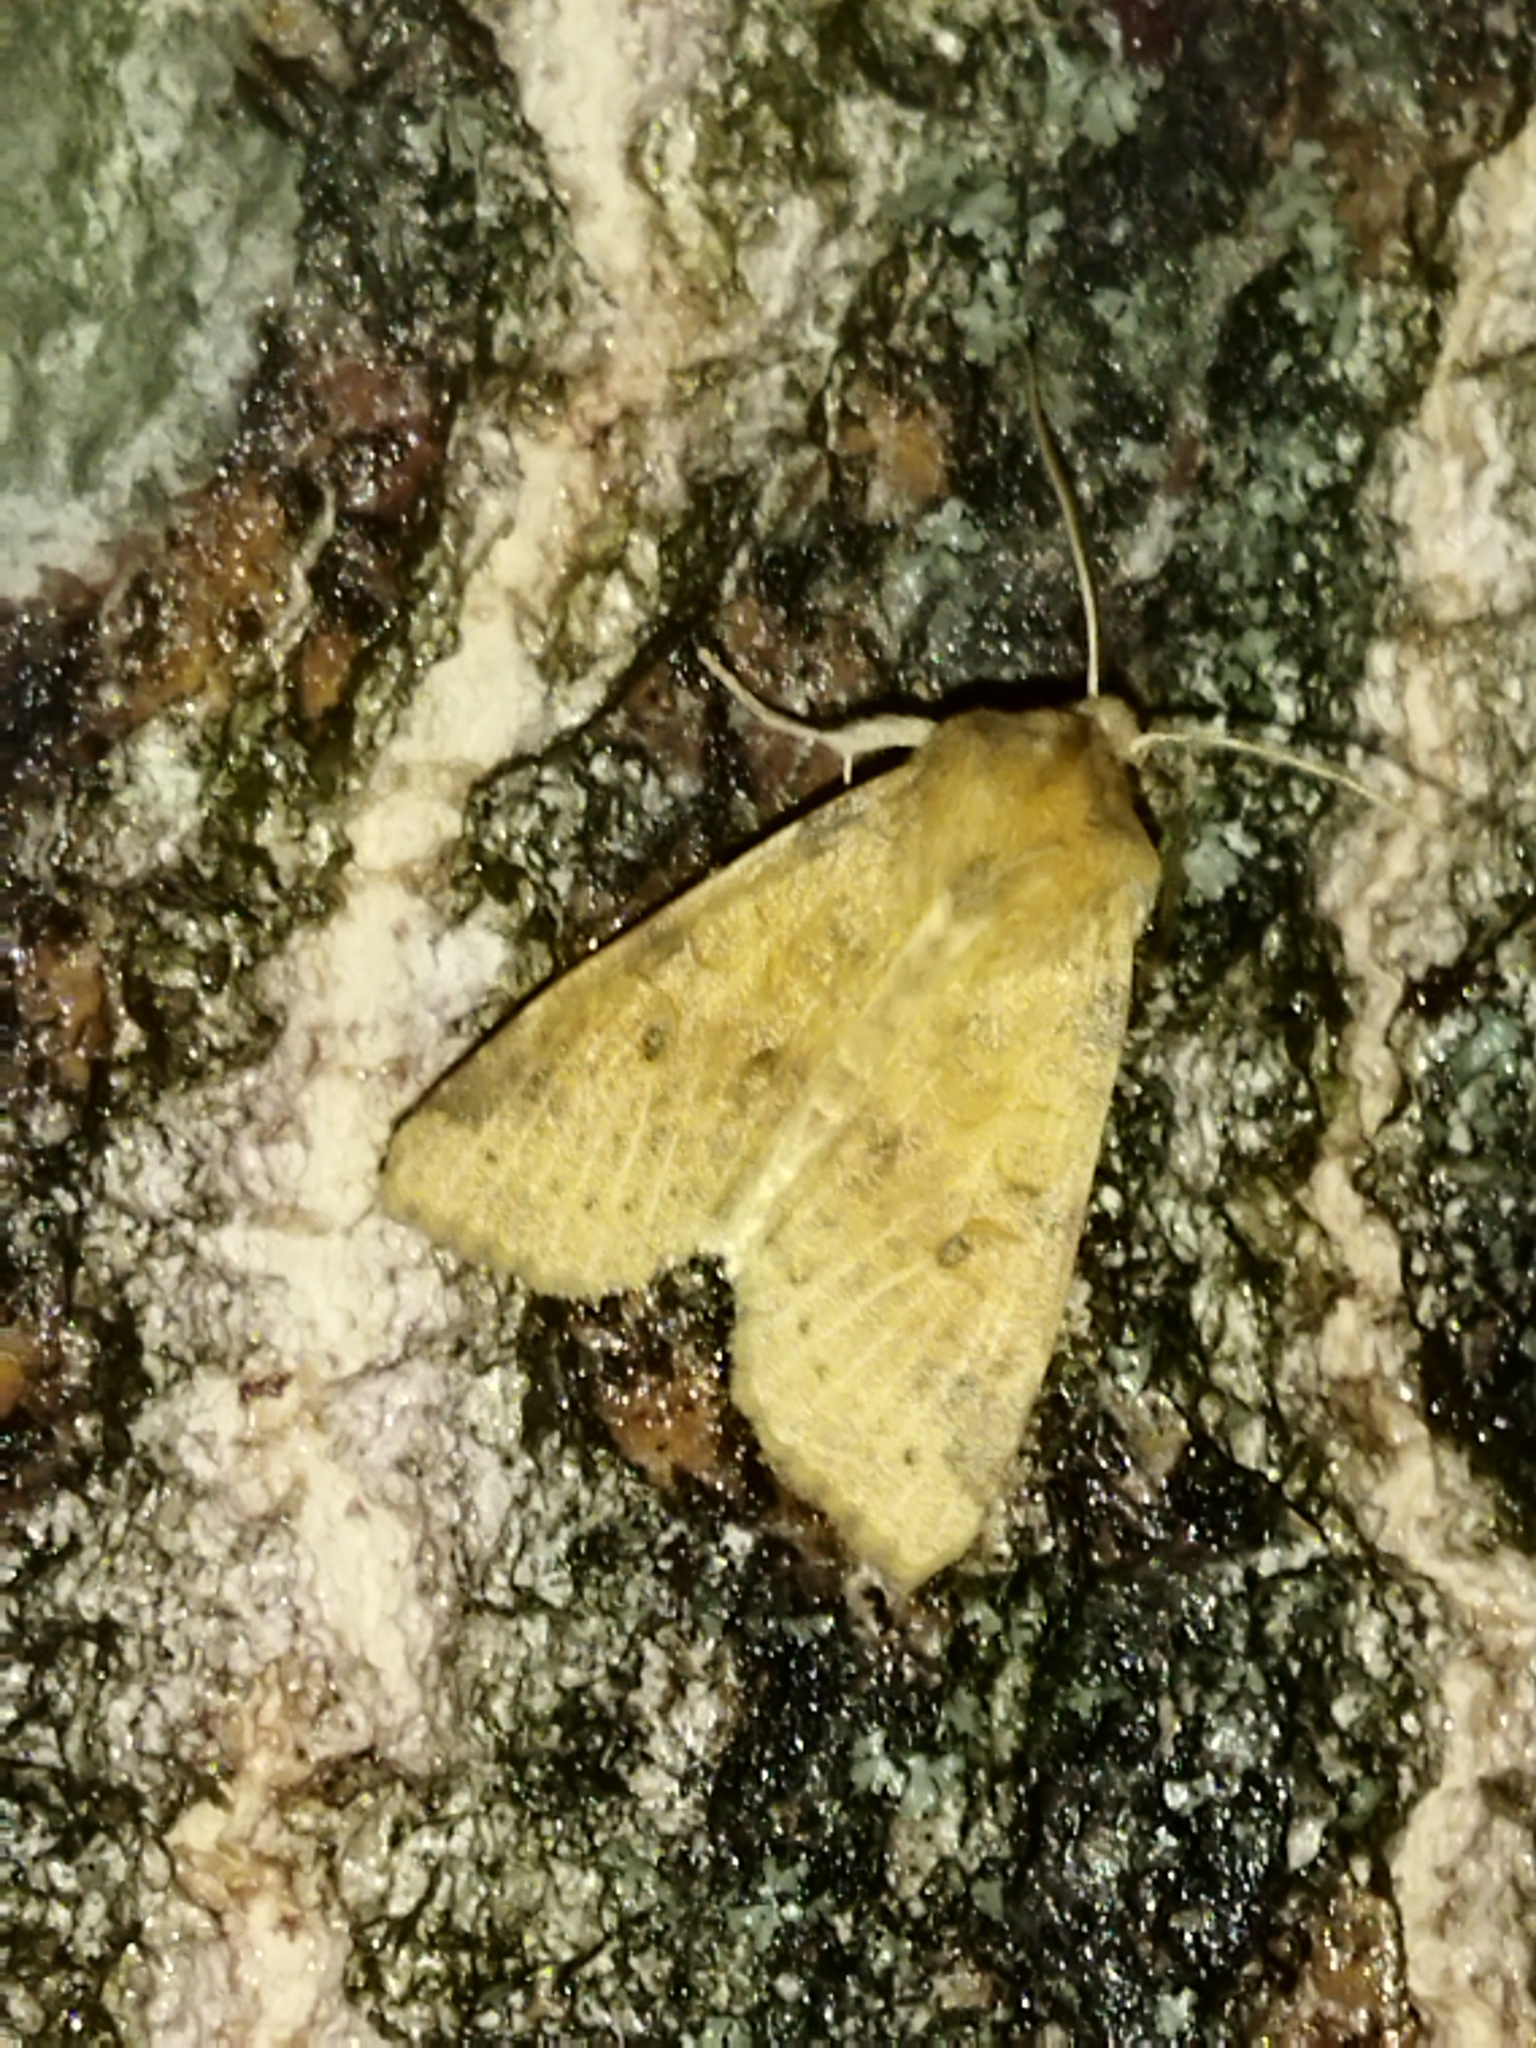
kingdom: Animalia
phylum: Arthropoda
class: Insecta
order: Lepidoptera
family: Noctuidae
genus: Xanthia
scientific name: Xanthia gilvago
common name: Dusky-lemon sallow
